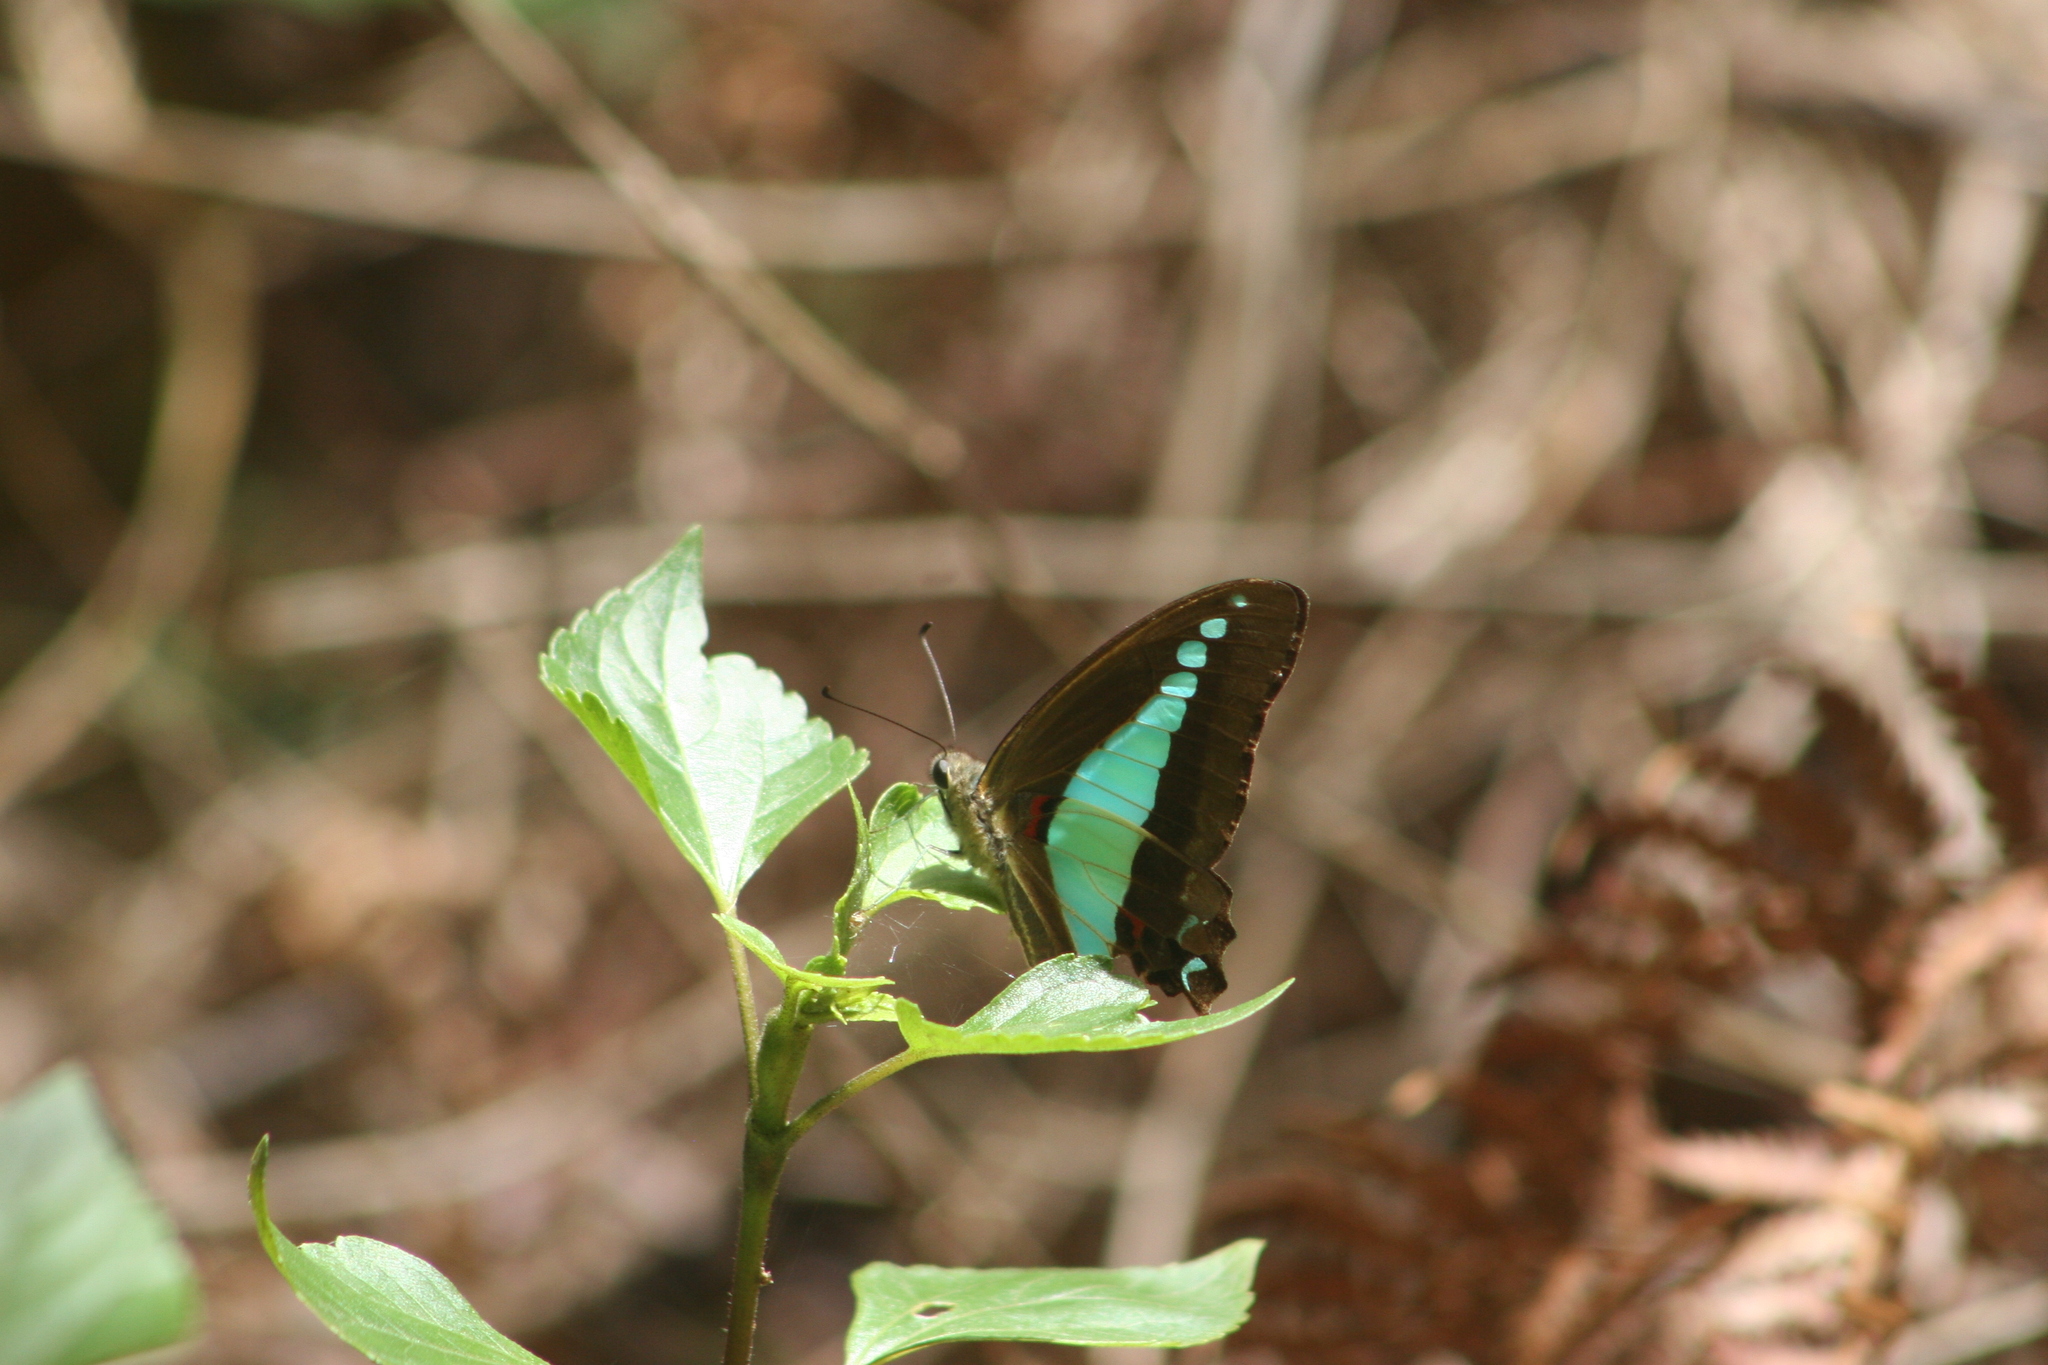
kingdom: Animalia
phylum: Arthropoda
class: Insecta
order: Lepidoptera
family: Papilionidae
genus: Graphium
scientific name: Graphium
